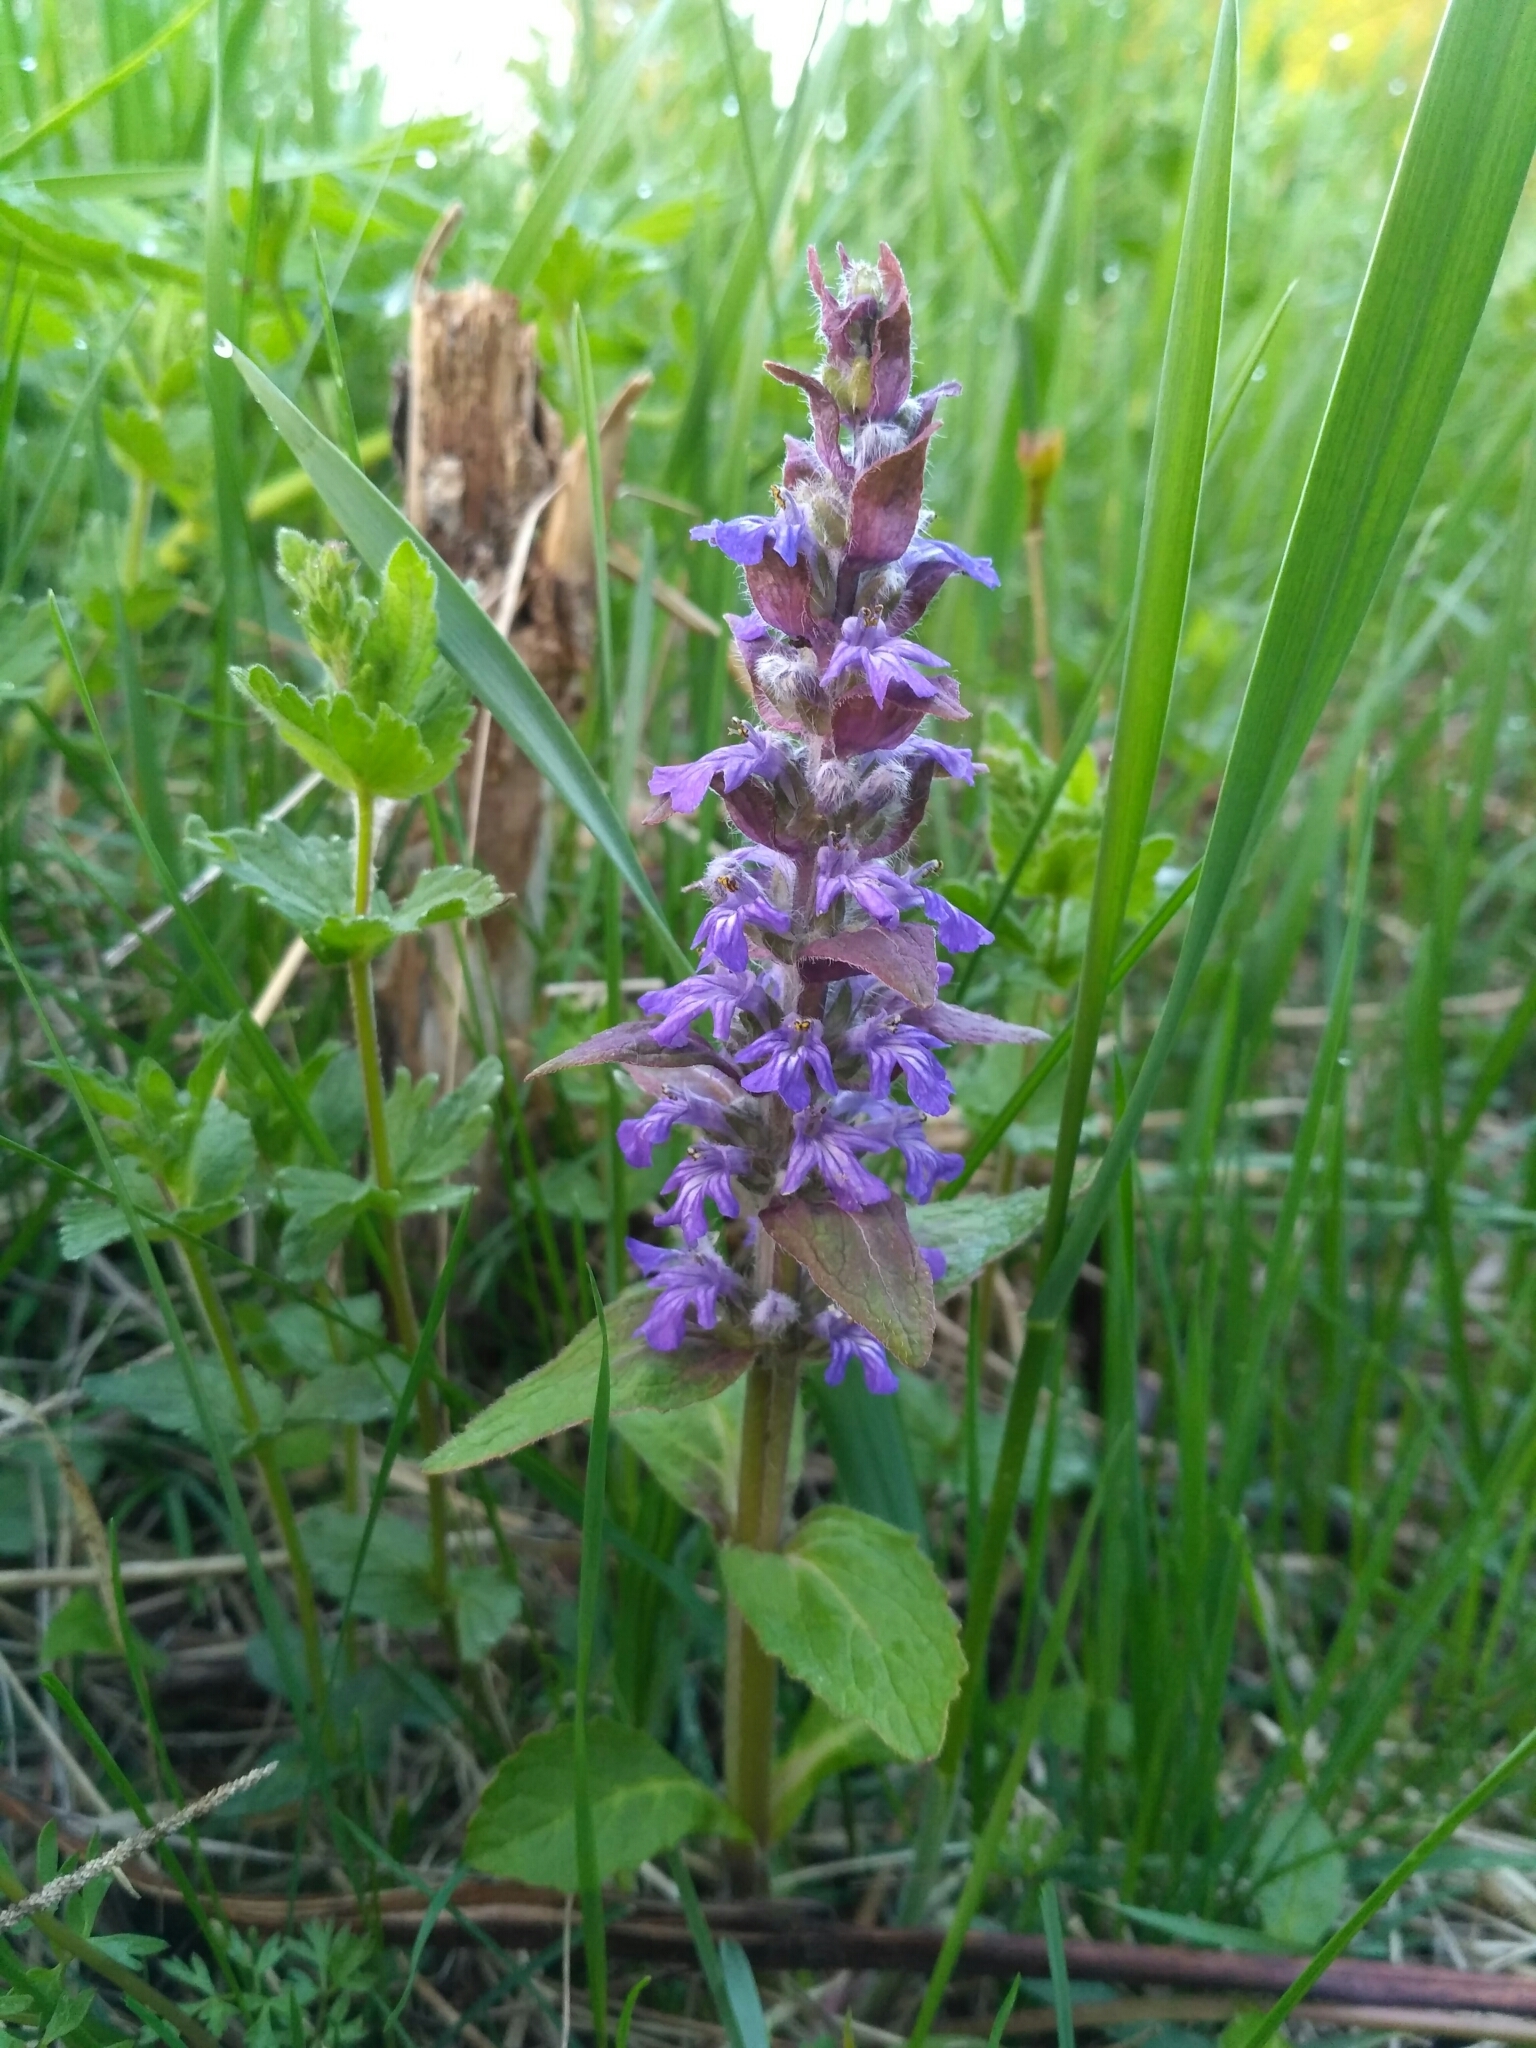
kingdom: Plantae
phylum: Tracheophyta
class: Magnoliopsida
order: Lamiales
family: Lamiaceae
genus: Ajuga
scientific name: Ajuga reptans
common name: Bugle
